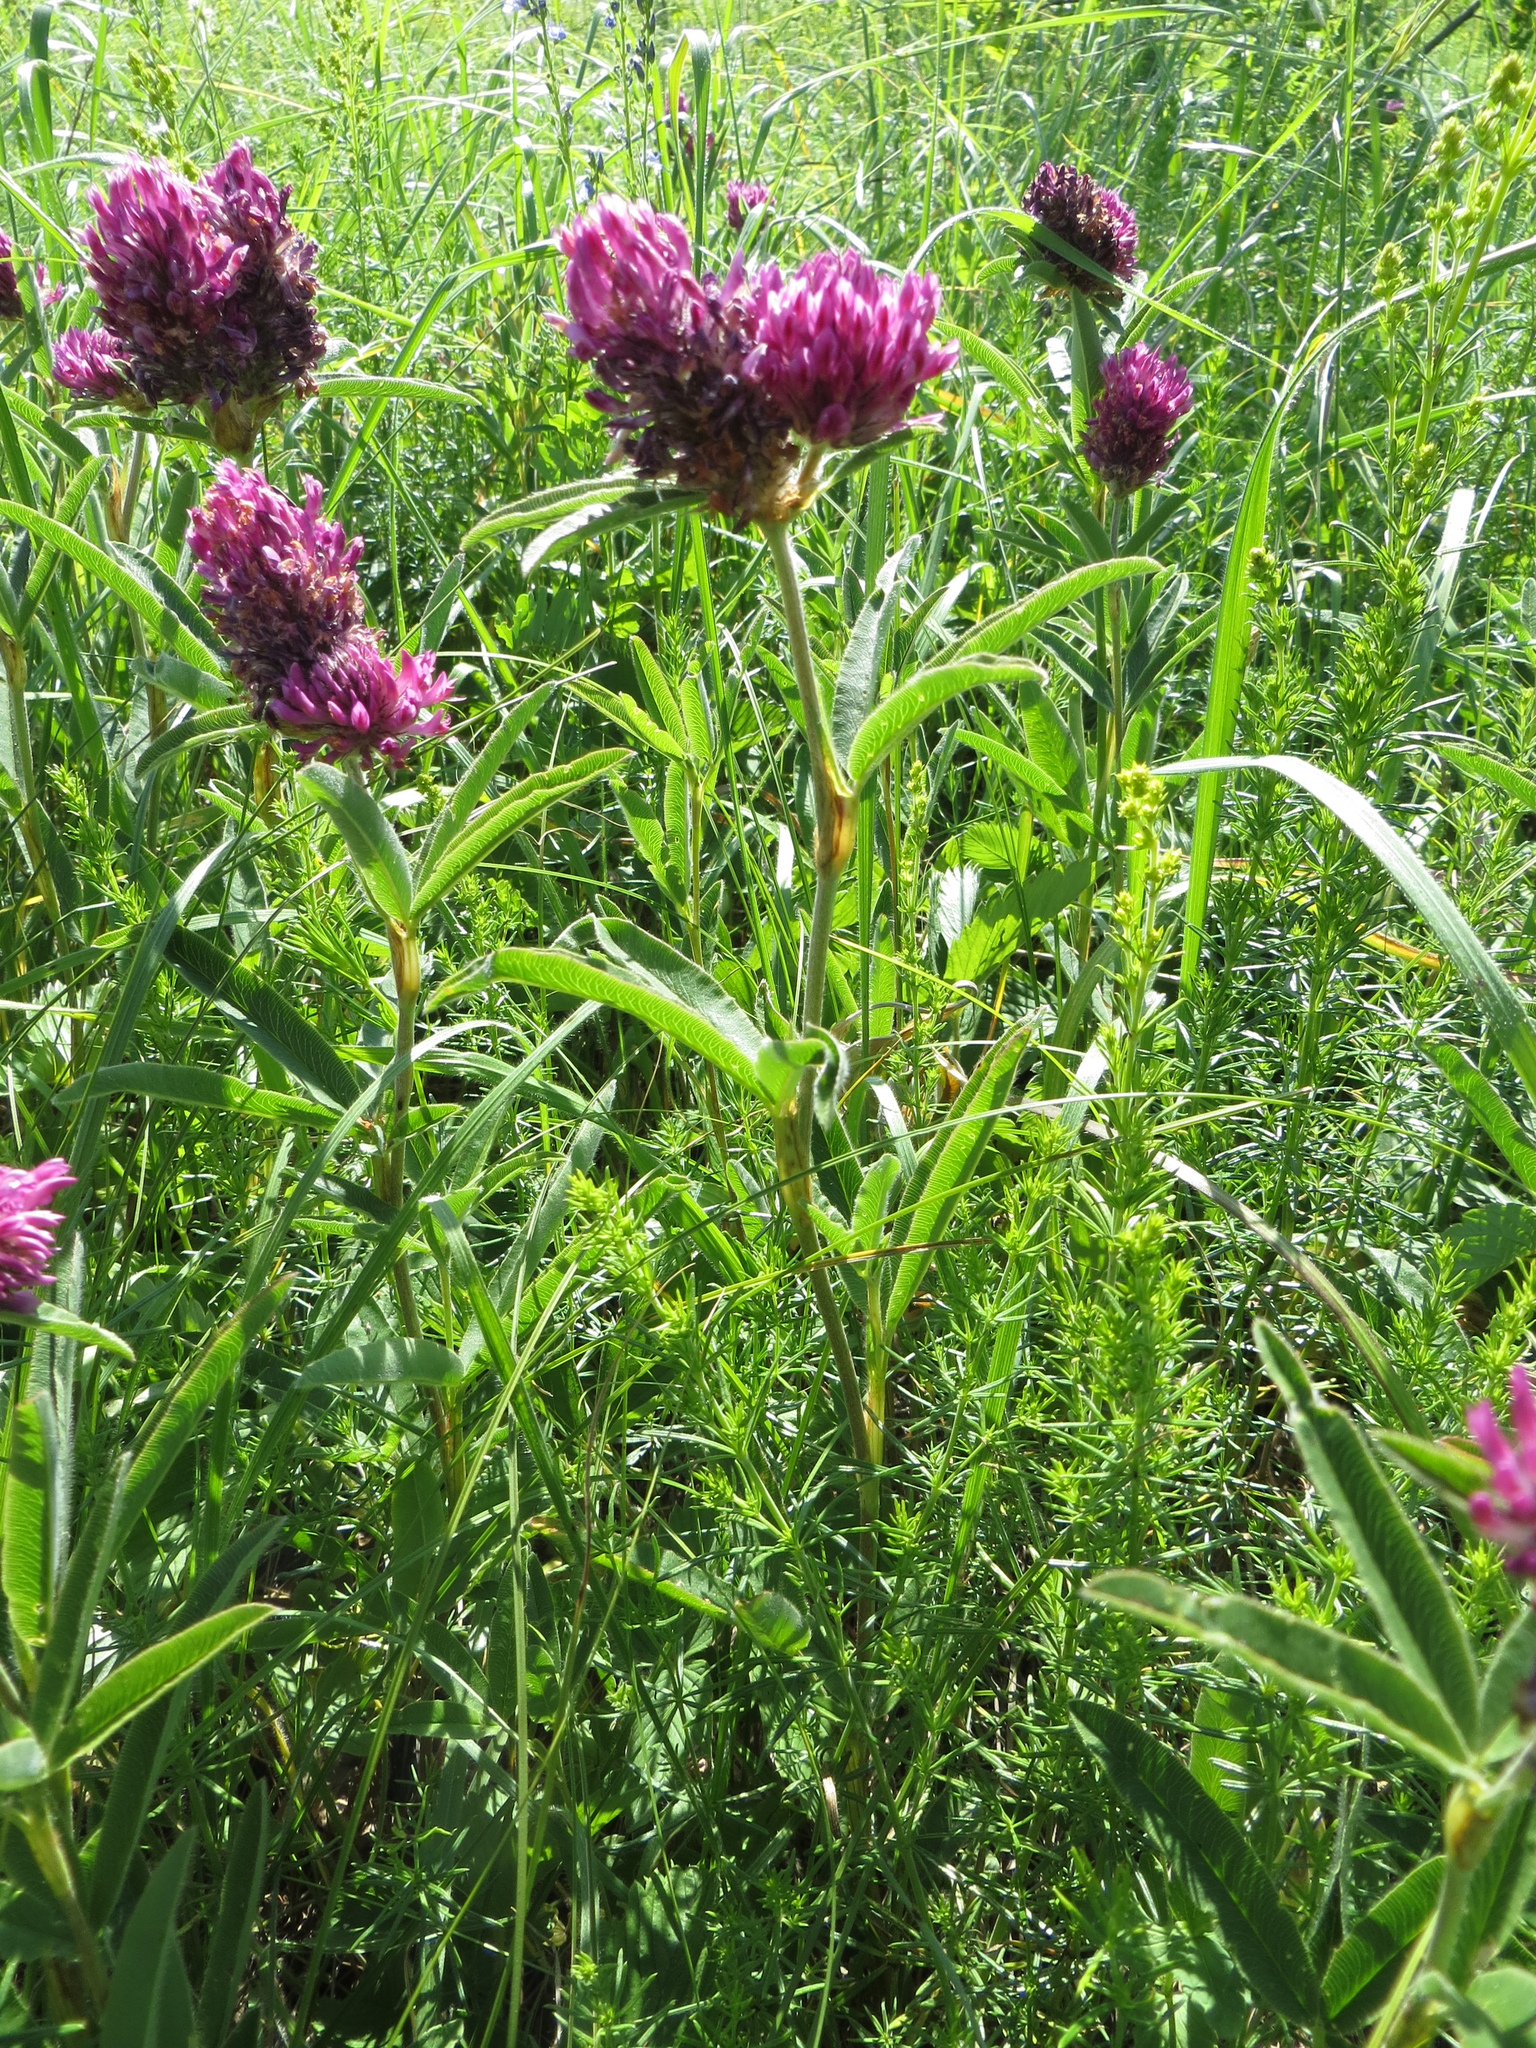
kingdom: Plantae
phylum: Tracheophyta
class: Magnoliopsida
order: Fabales
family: Fabaceae
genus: Trifolium
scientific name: Trifolium alpestre
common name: Owl-head clover
